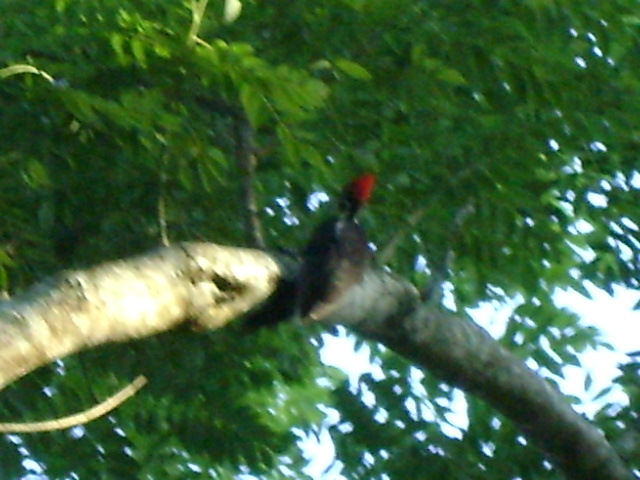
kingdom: Animalia
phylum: Chordata
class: Aves
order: Piciformes
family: Picidae
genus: Dryocopus
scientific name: Dryocopus lineatus
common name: Lineated woodpecker
